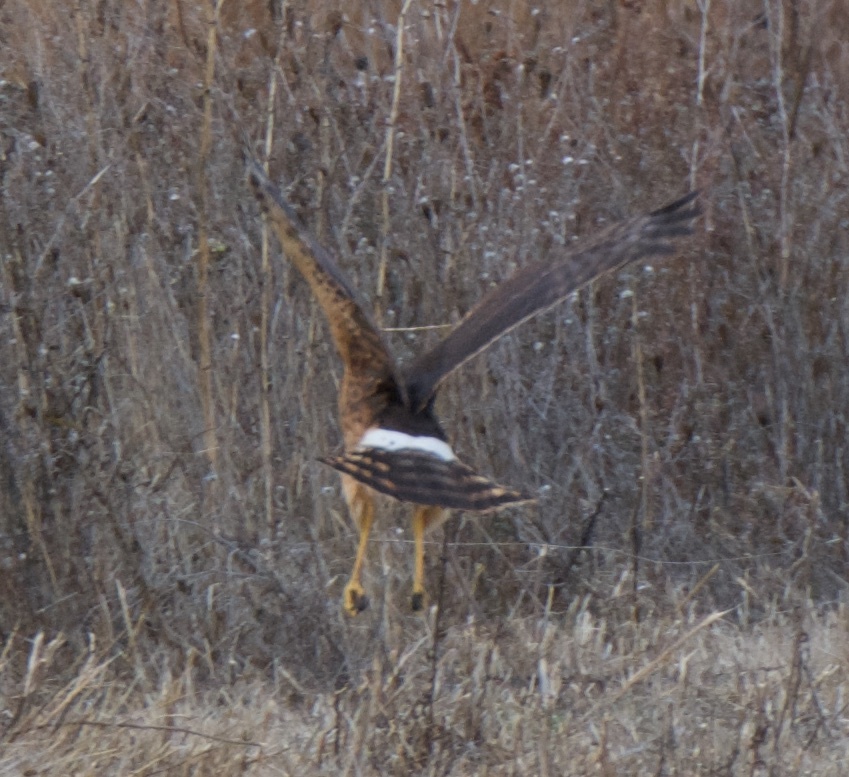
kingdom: Animalia
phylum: Chordata
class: Aves
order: Accipitriformes
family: Accipitridae
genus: Circus
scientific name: Circus cyaneus
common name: Hen harrier
